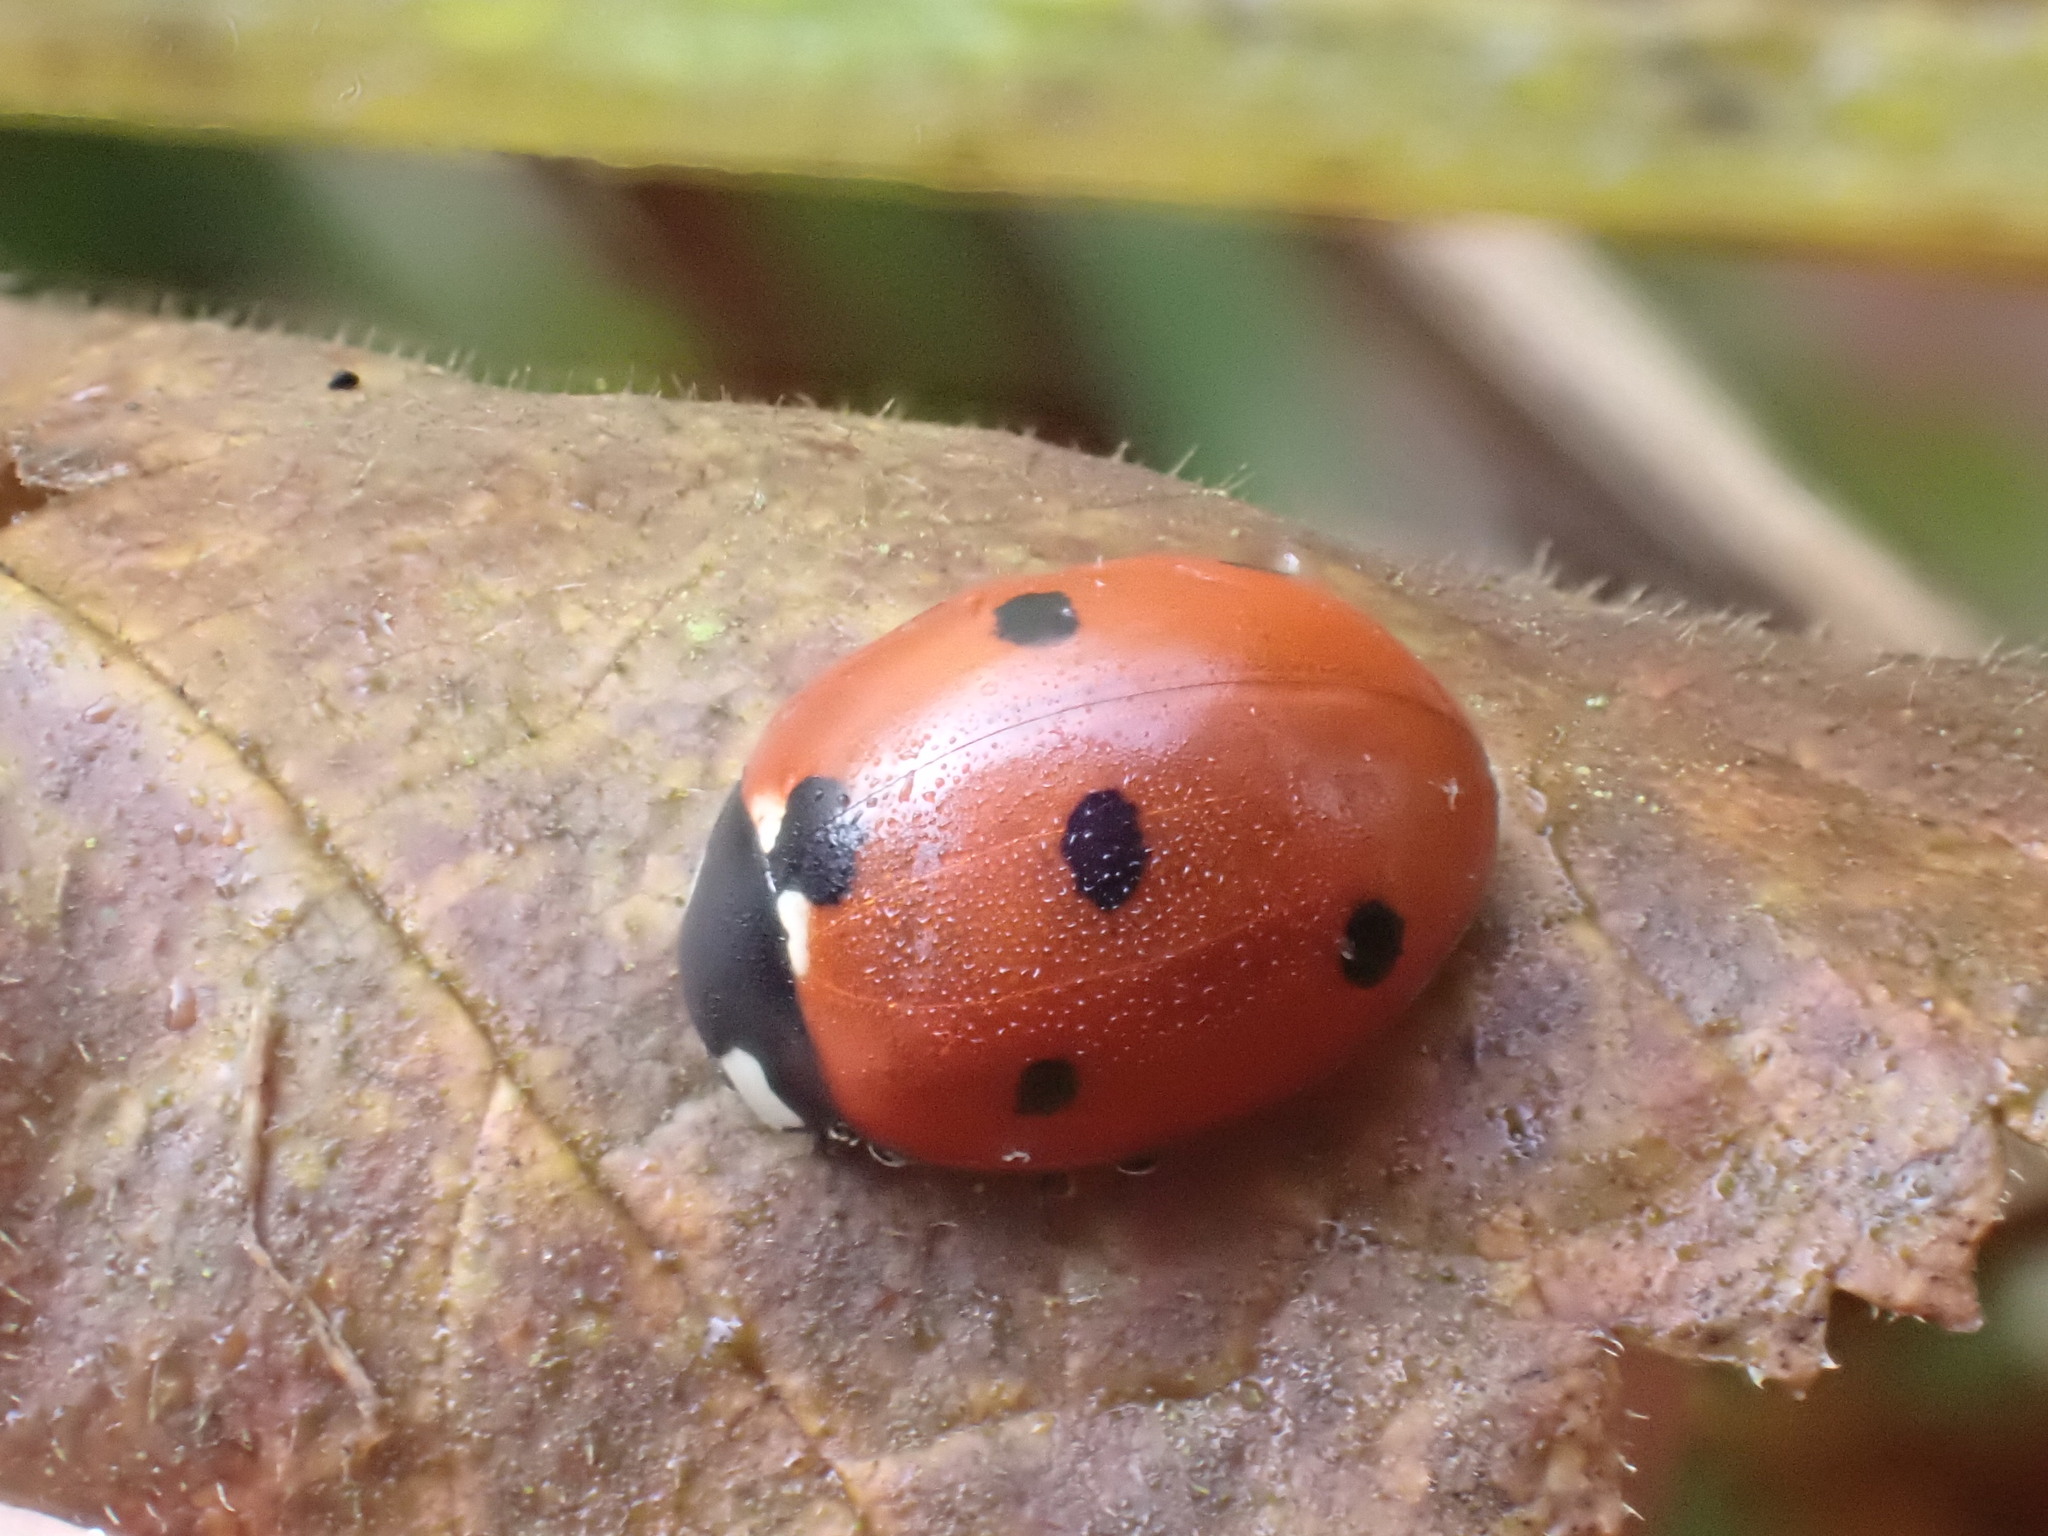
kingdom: Animalia
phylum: Arthropoda
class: Insecta
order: Coleoptera
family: Coccinellidae
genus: Coccinella
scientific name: Coccinella septempunctata
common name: Sevenspotted lady beetle
